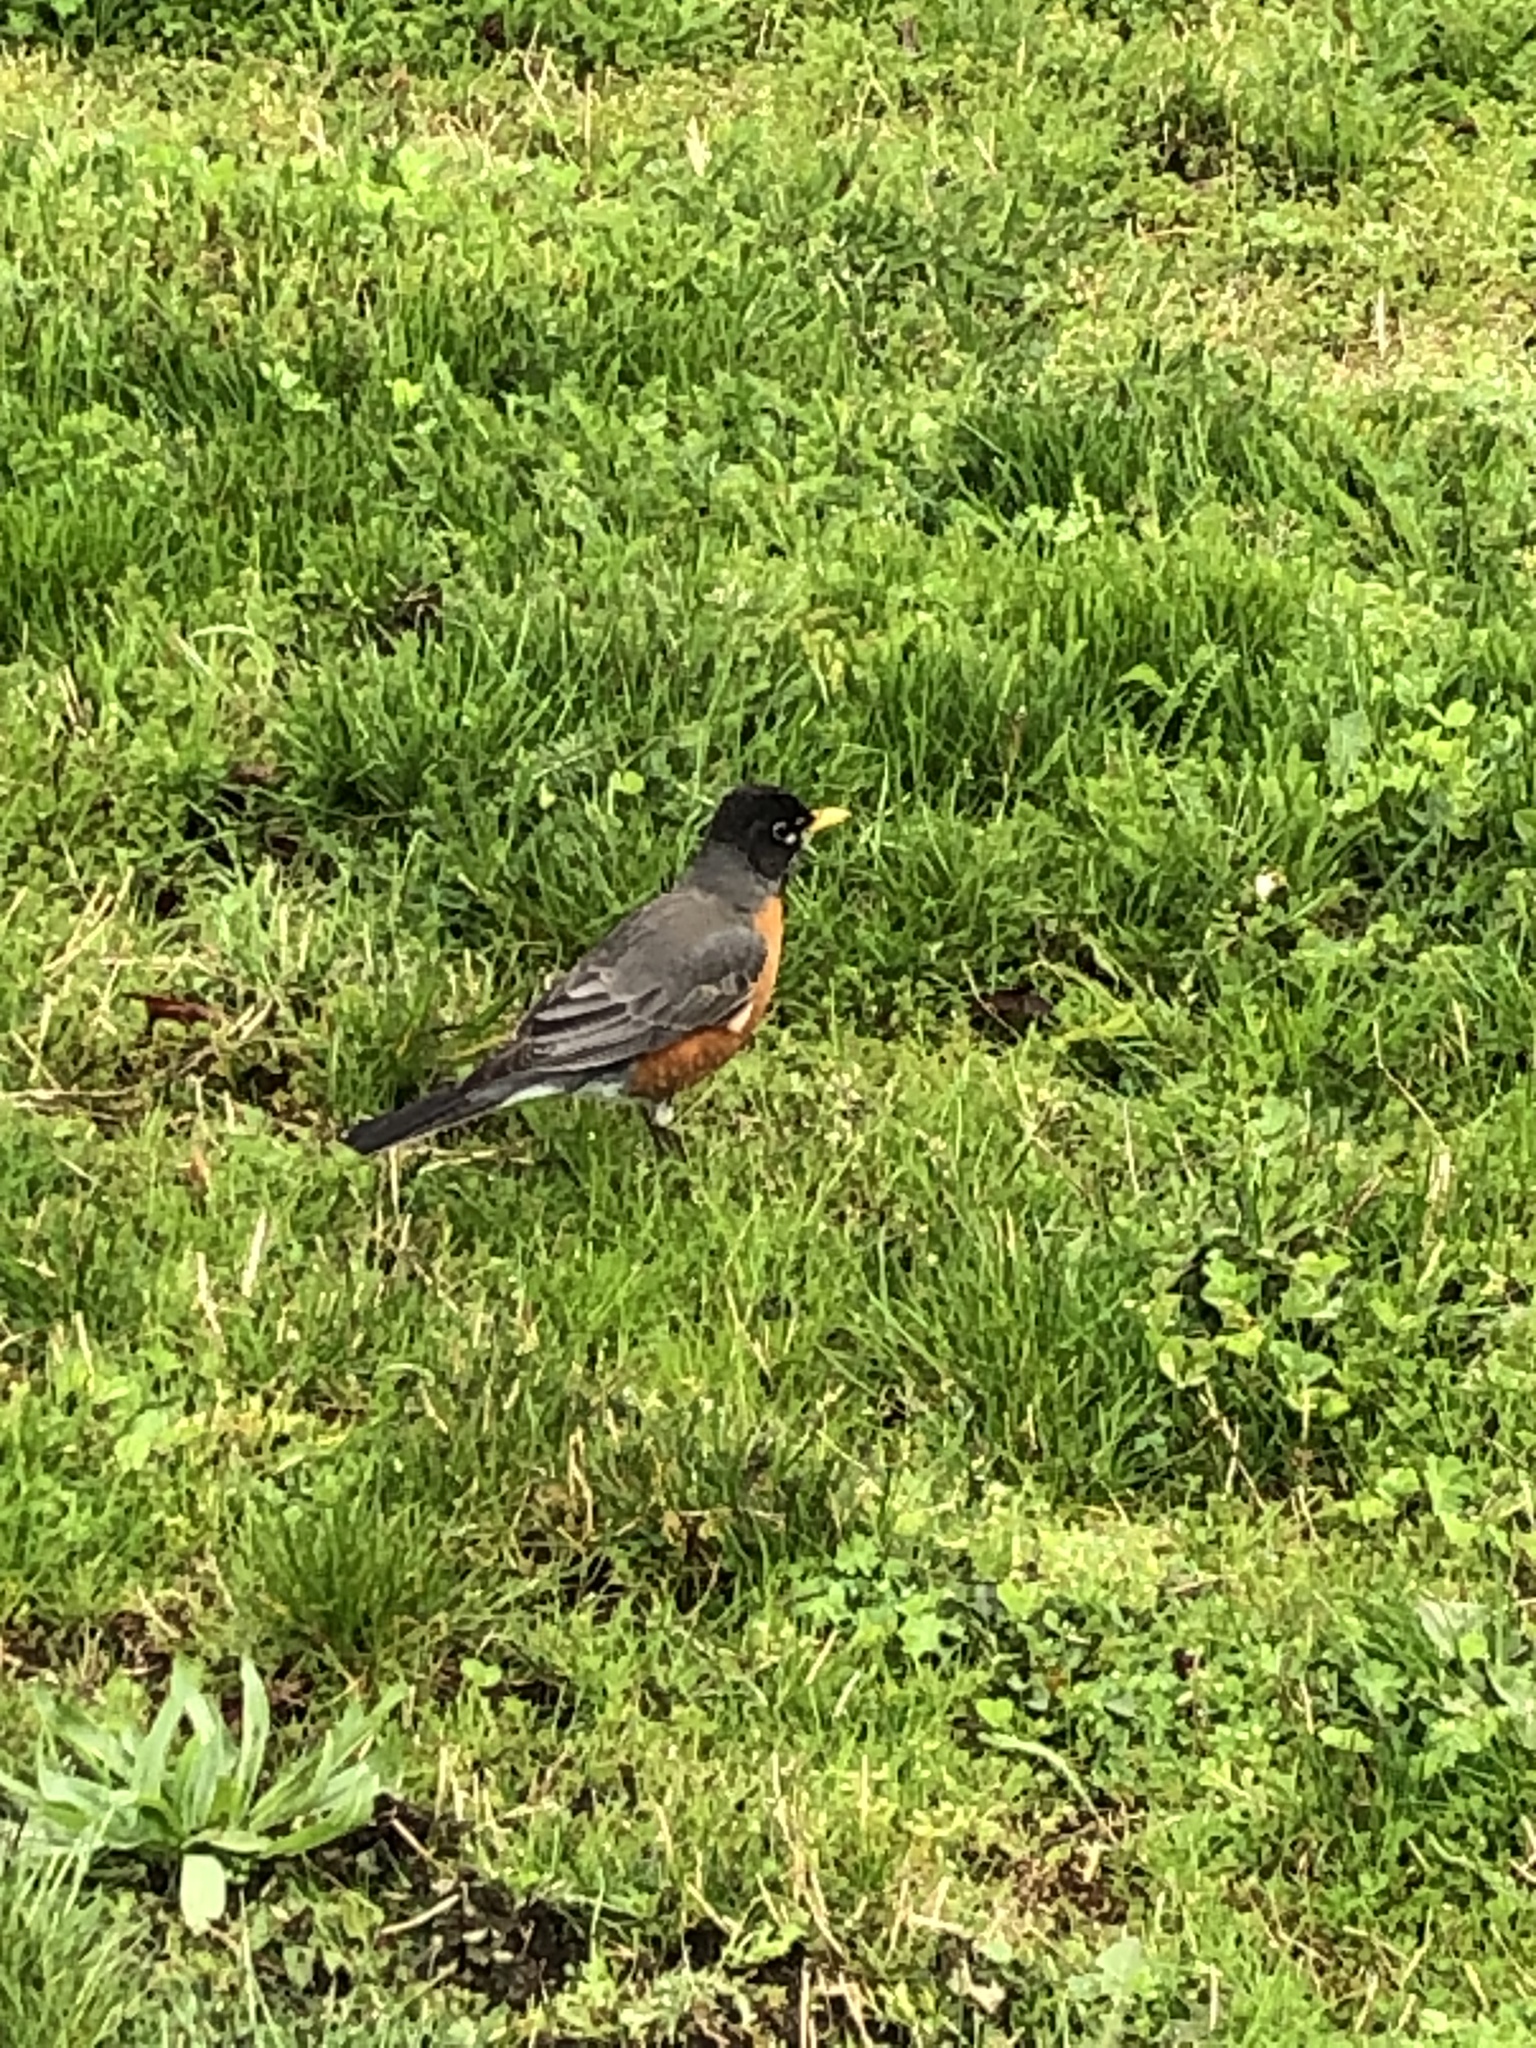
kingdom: Animalia
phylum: Chordata
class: Aves
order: Passeriformes
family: Turdidae
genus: Turdus
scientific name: Turdus migratorius
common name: American robin
